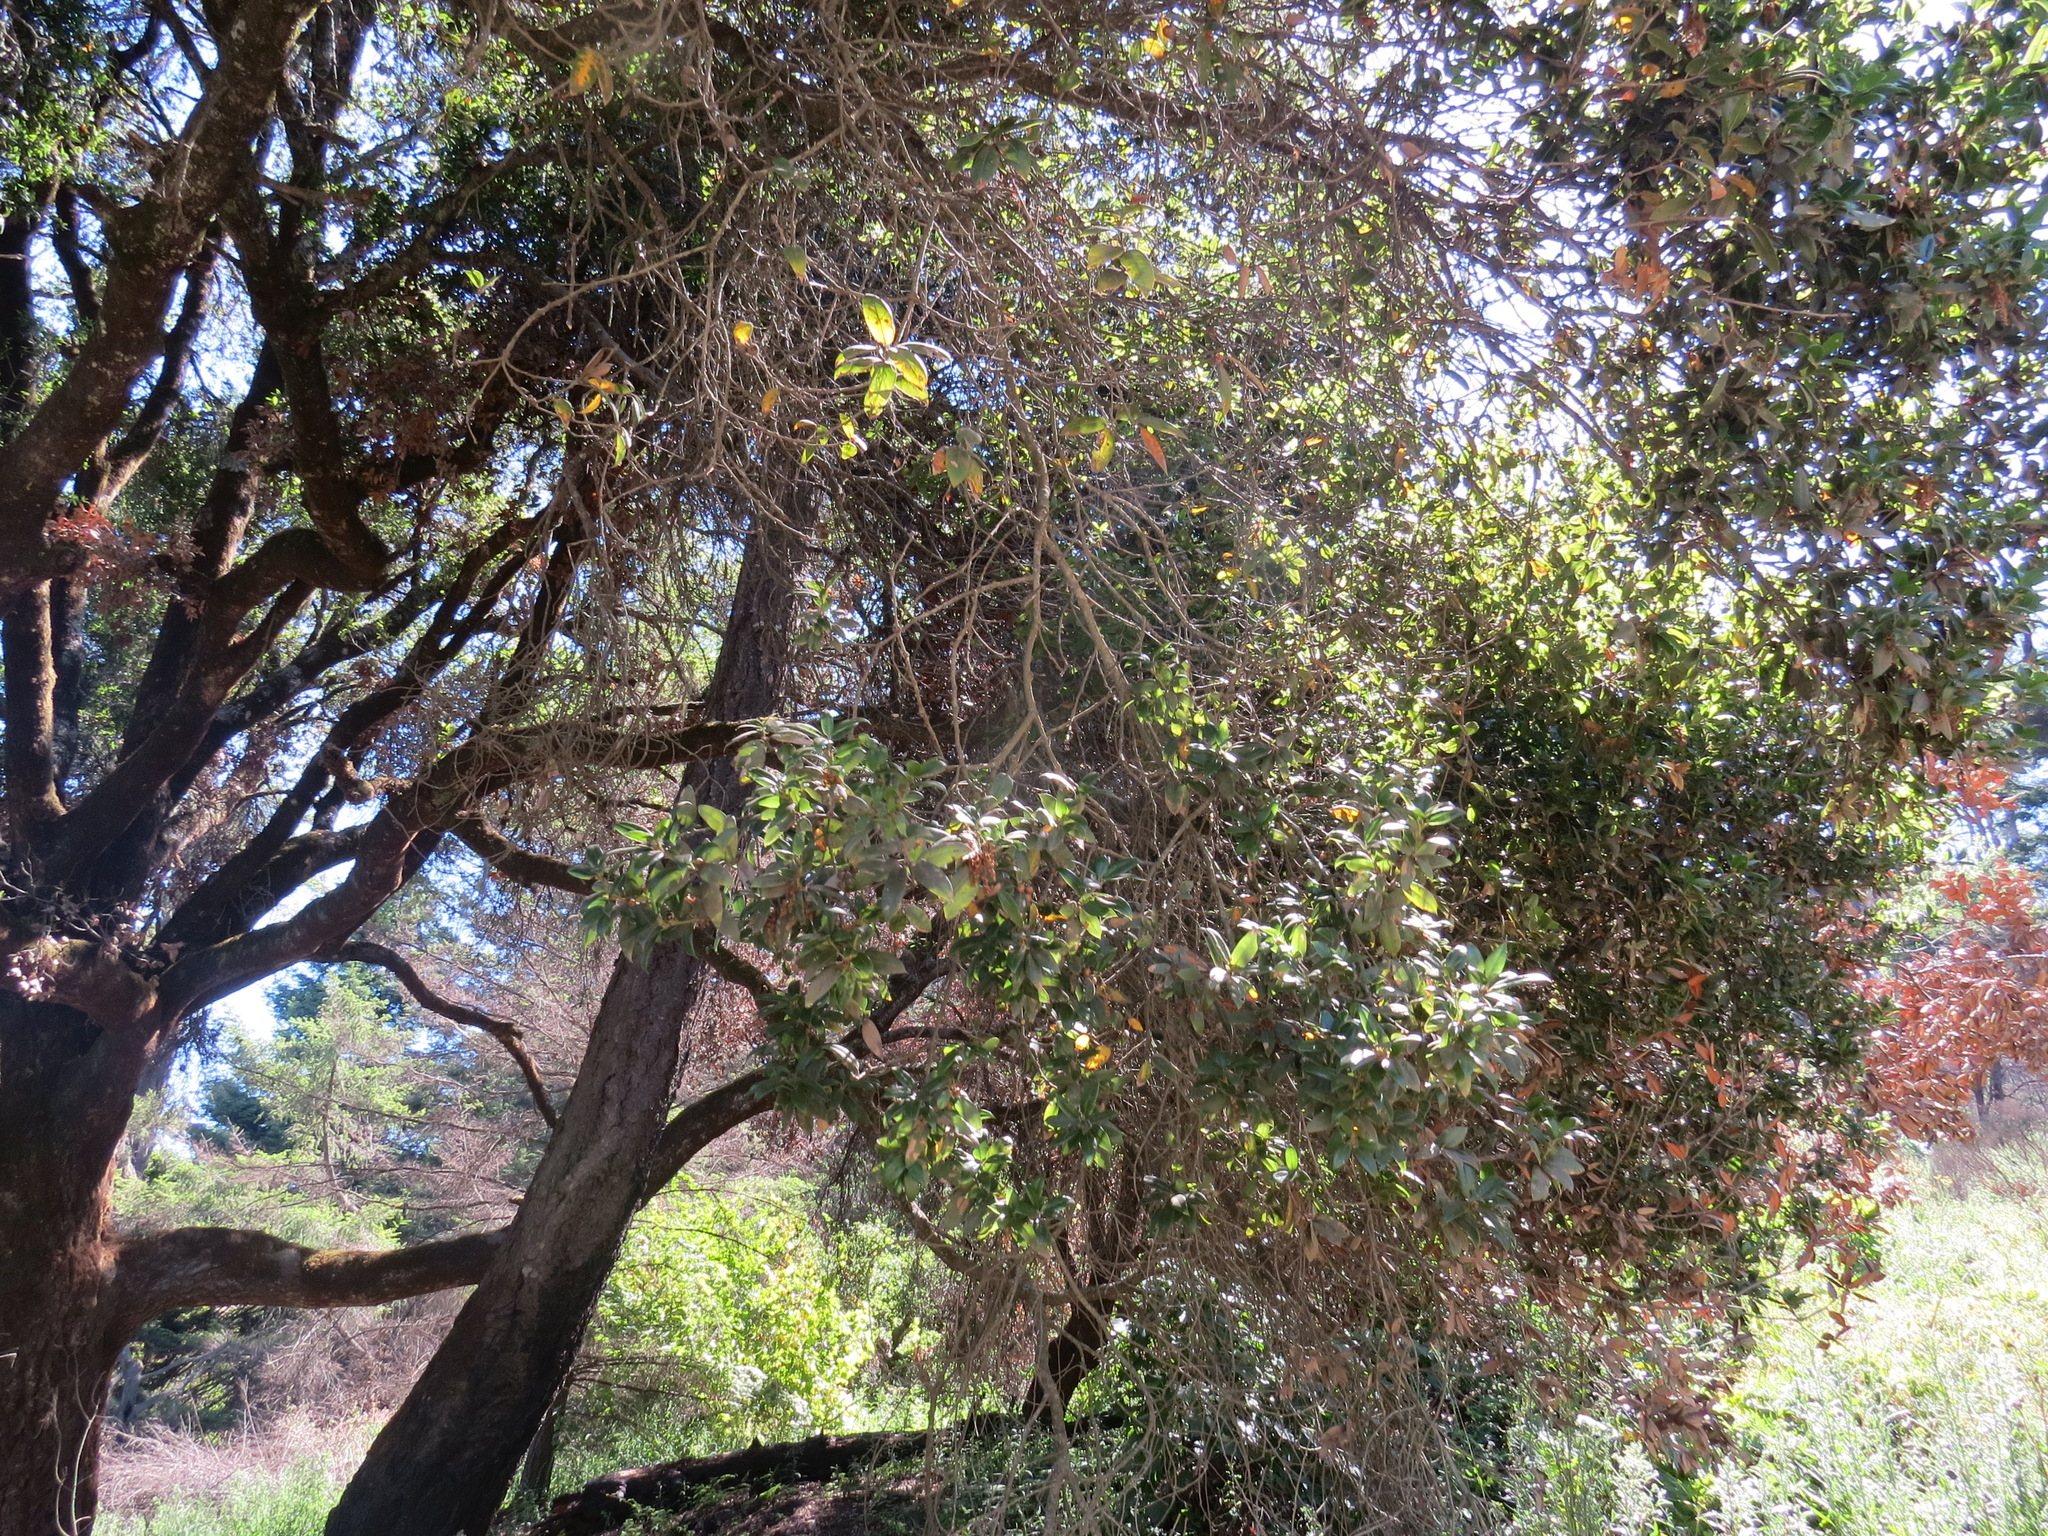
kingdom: Plantae
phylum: Tracheophyta
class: Magnoliopsida
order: Fagales
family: Fagaceae
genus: Quercus
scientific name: Quercus parvula
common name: Santa cruz island oak
